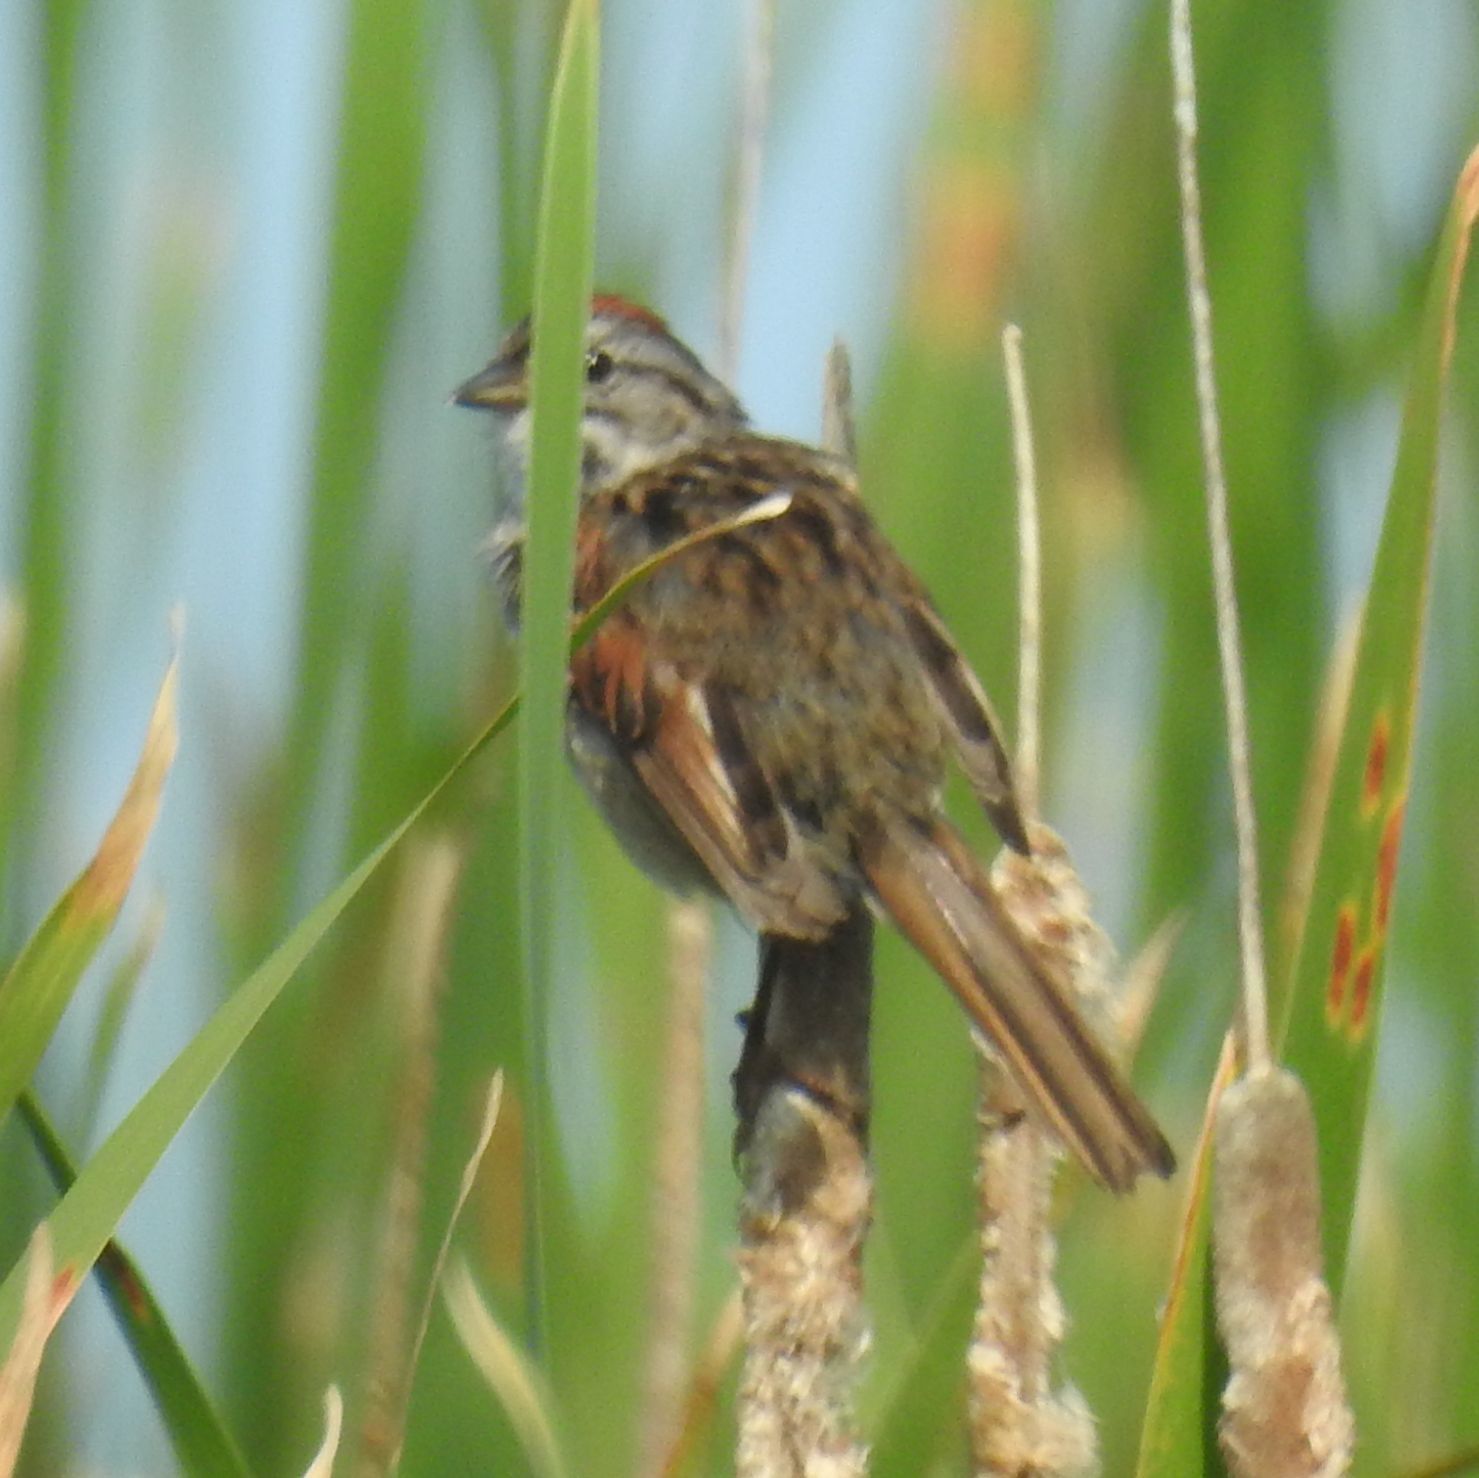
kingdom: Animalia
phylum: Chordata
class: Aves
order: Passeriformes
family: Passerellidae
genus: Melospiza
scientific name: Melospiza georgiana
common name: Swamp sparrow
